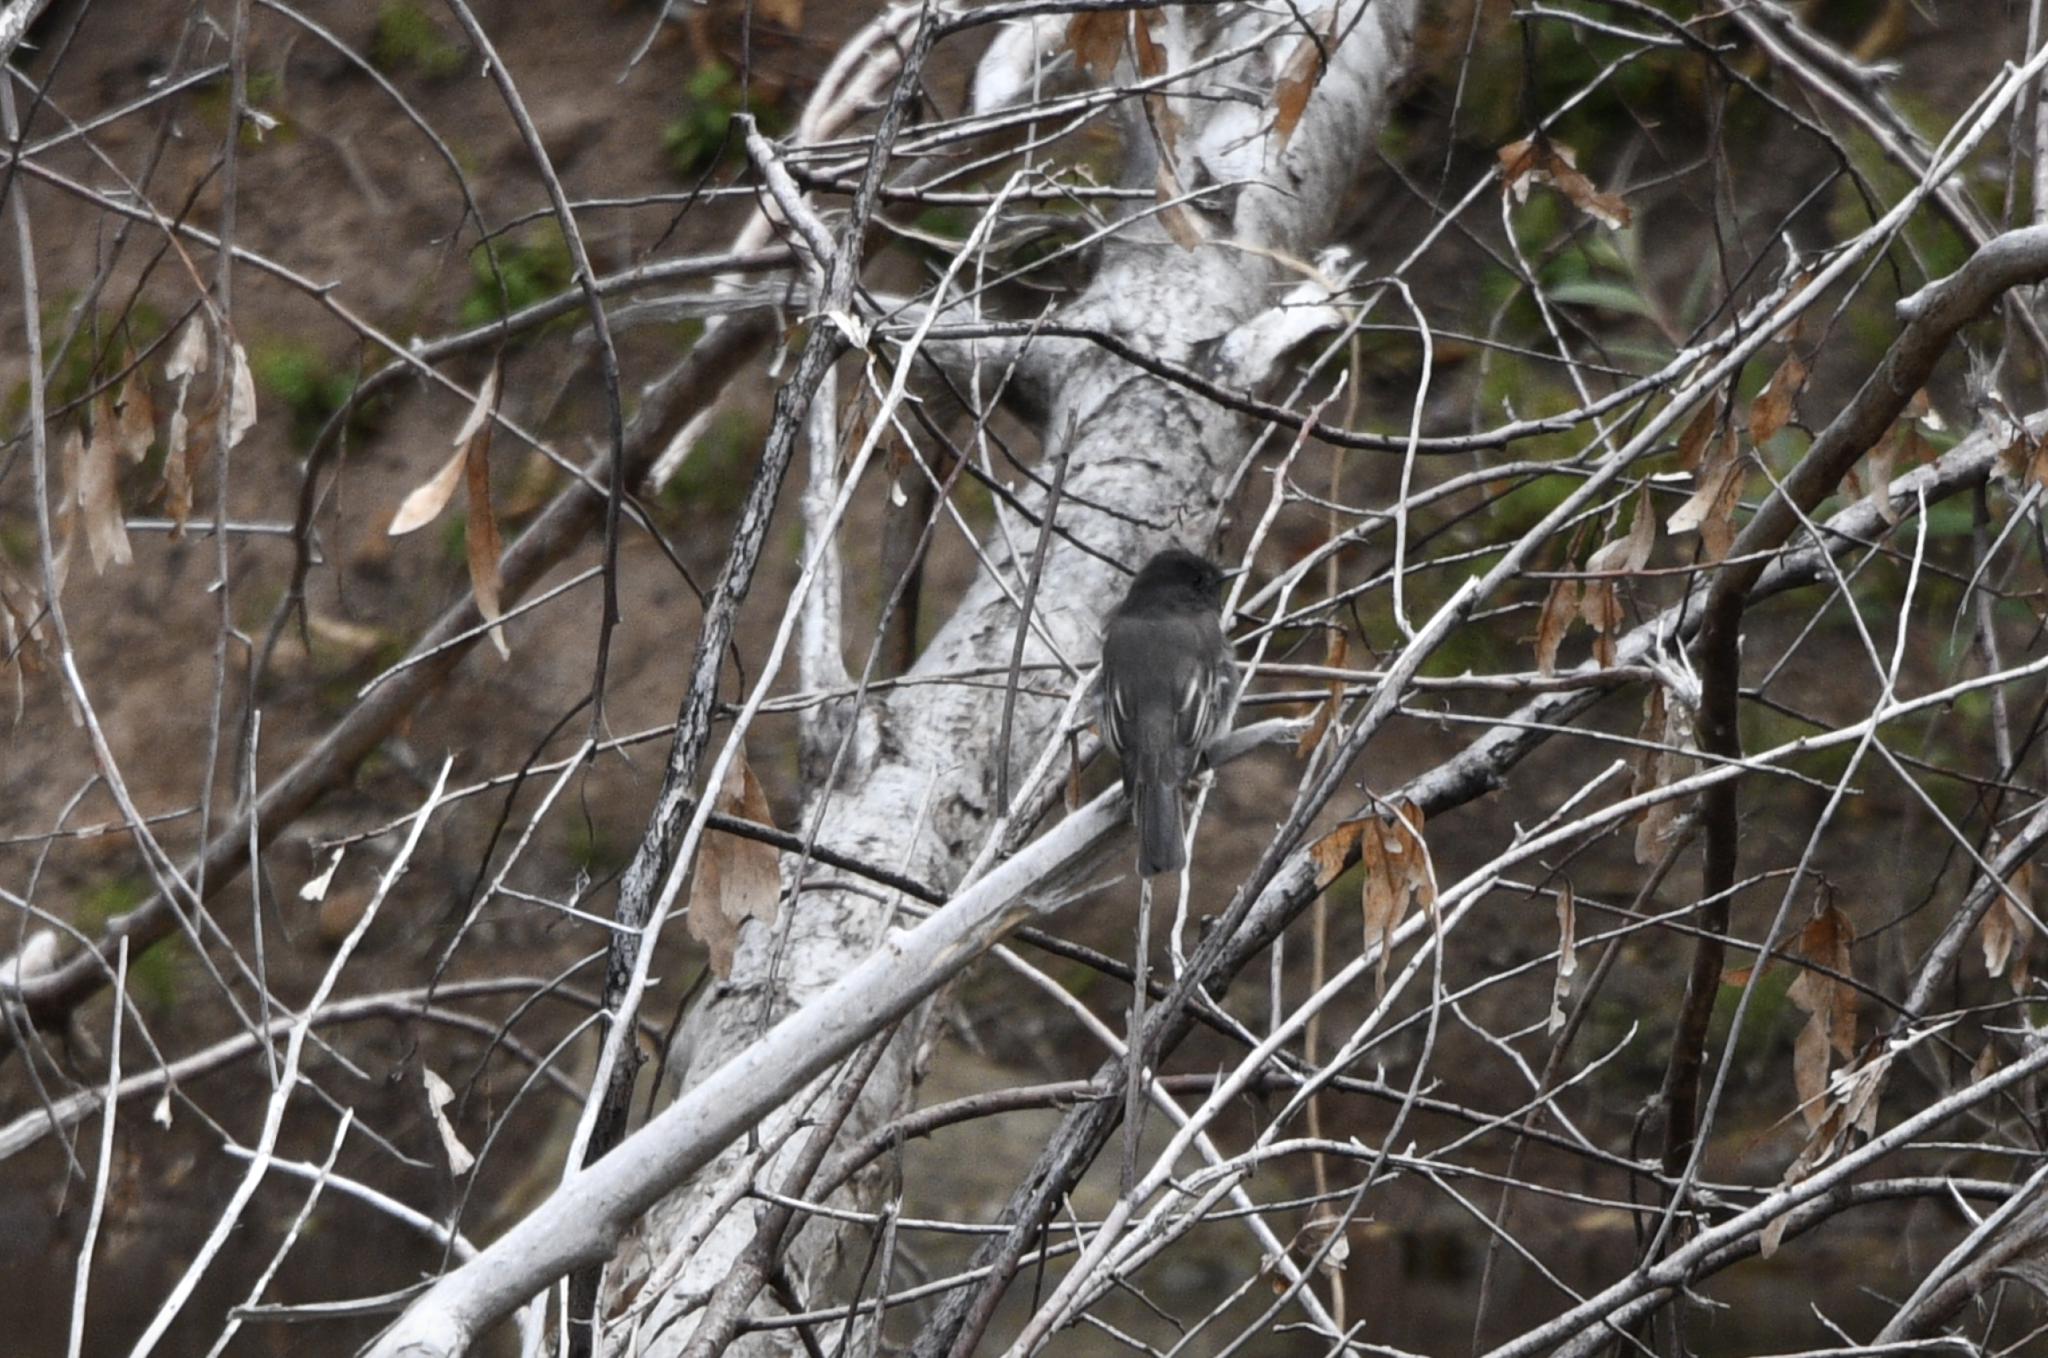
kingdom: Animalia
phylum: Chordata
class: Aves
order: Passeriformes
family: Tyrannidae
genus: Sayornis
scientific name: Sayornis nigricans
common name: Black phoebe
